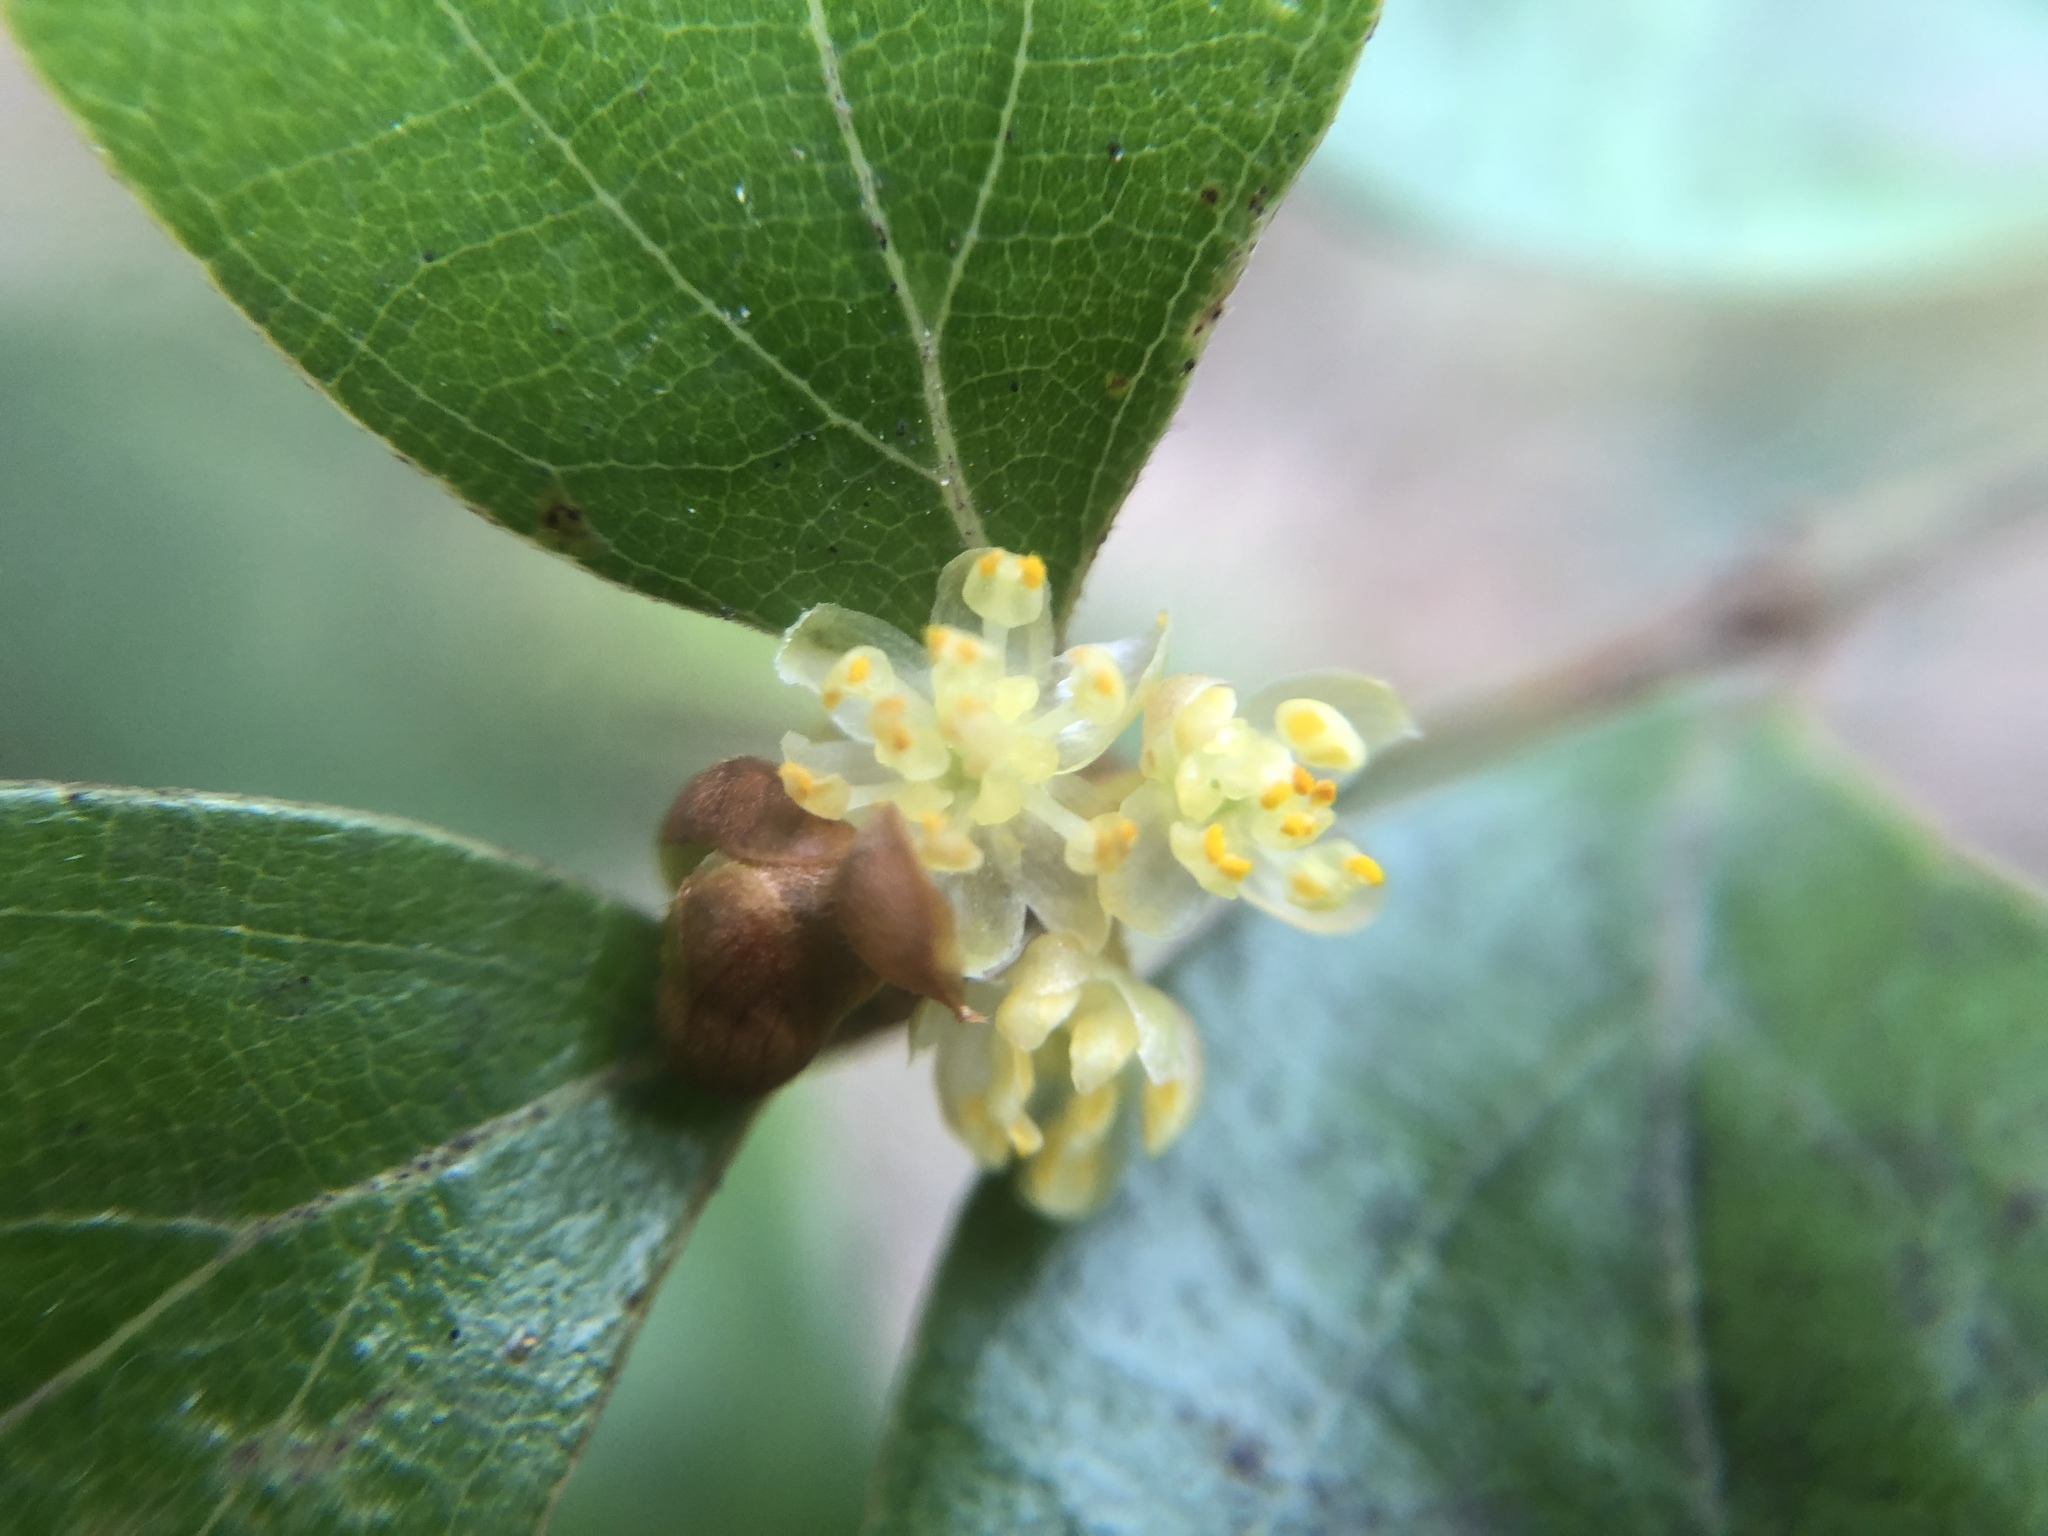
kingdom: Plantae
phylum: Tracheophyta
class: Magnoliopsida
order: Laurales
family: Lauraceae
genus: Lindera
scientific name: Lindera akoensis
